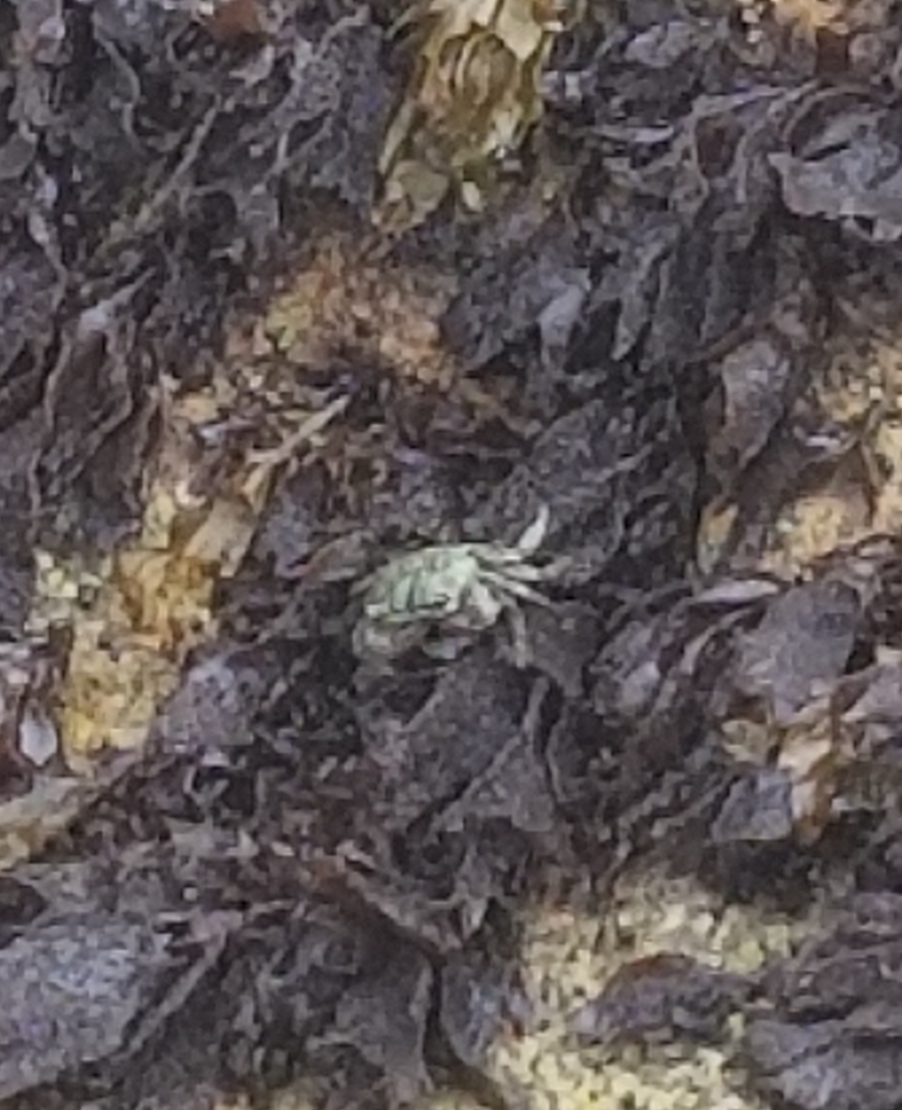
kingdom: Animalia
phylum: Arthropoda
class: Malacostraca
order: Decapoda
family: Grapsidae
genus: Pachygrapsus
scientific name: Pachygrapsus crassipes
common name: Striped shore crab
